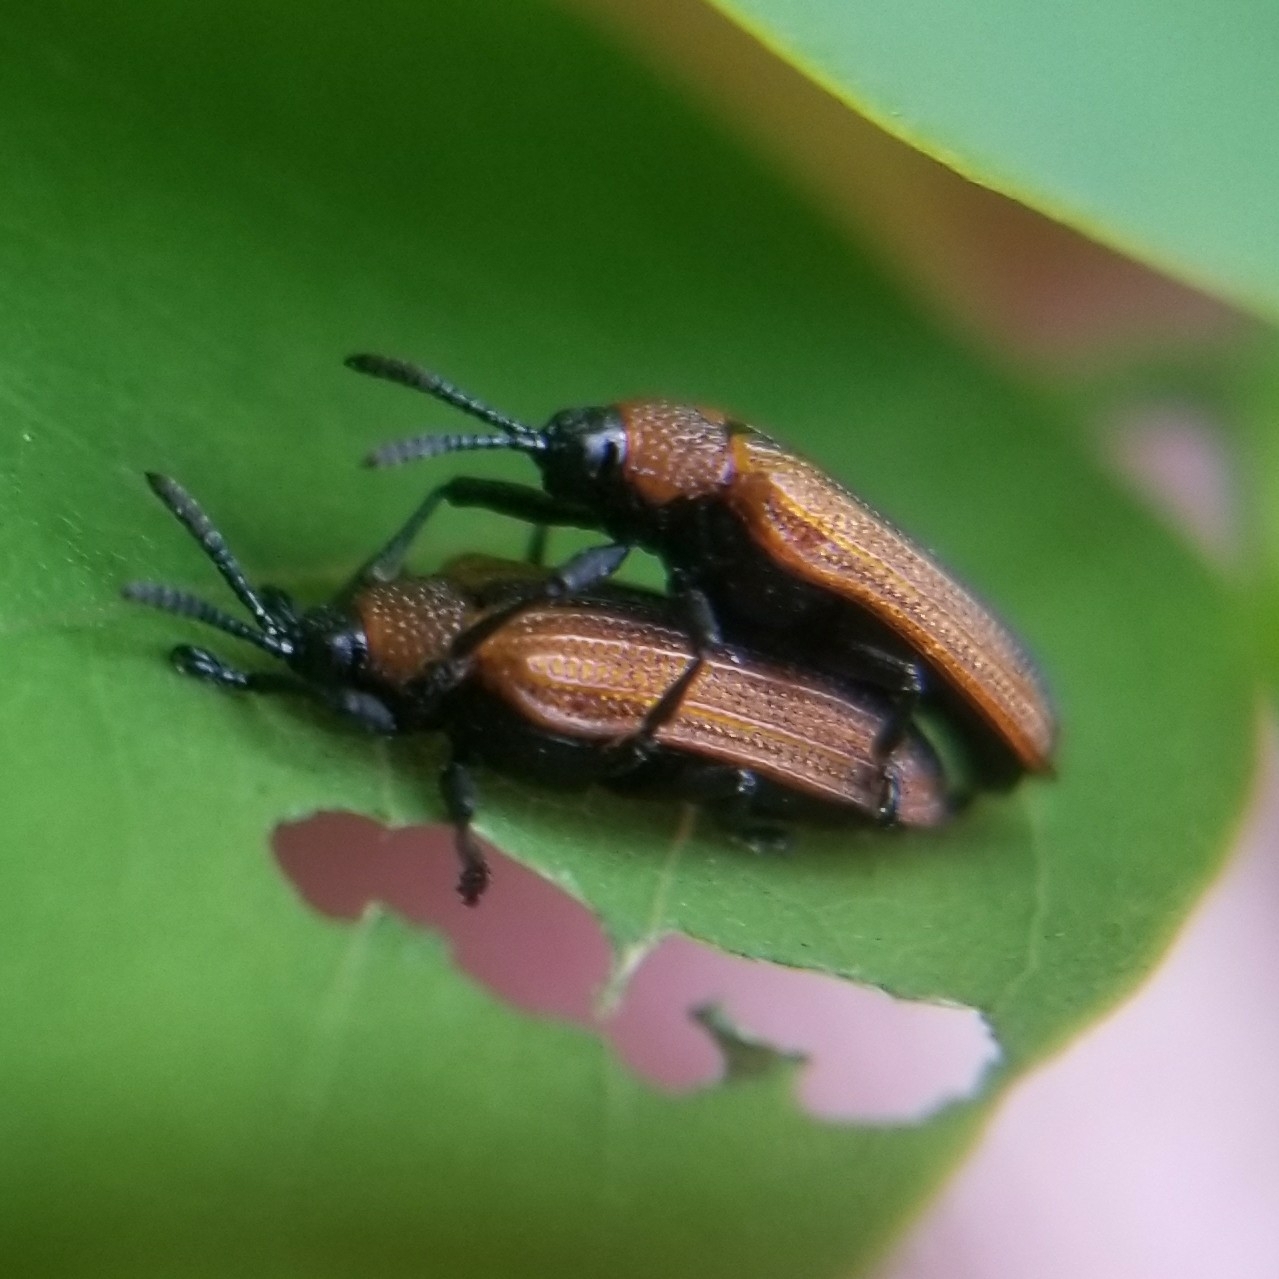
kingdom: Animalia
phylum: Arthropoda
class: Insecta
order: Coleoptera
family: Chrysomelidae
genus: Odontota
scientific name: Odontota dorsalis
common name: Locust leaf-miner beetle
